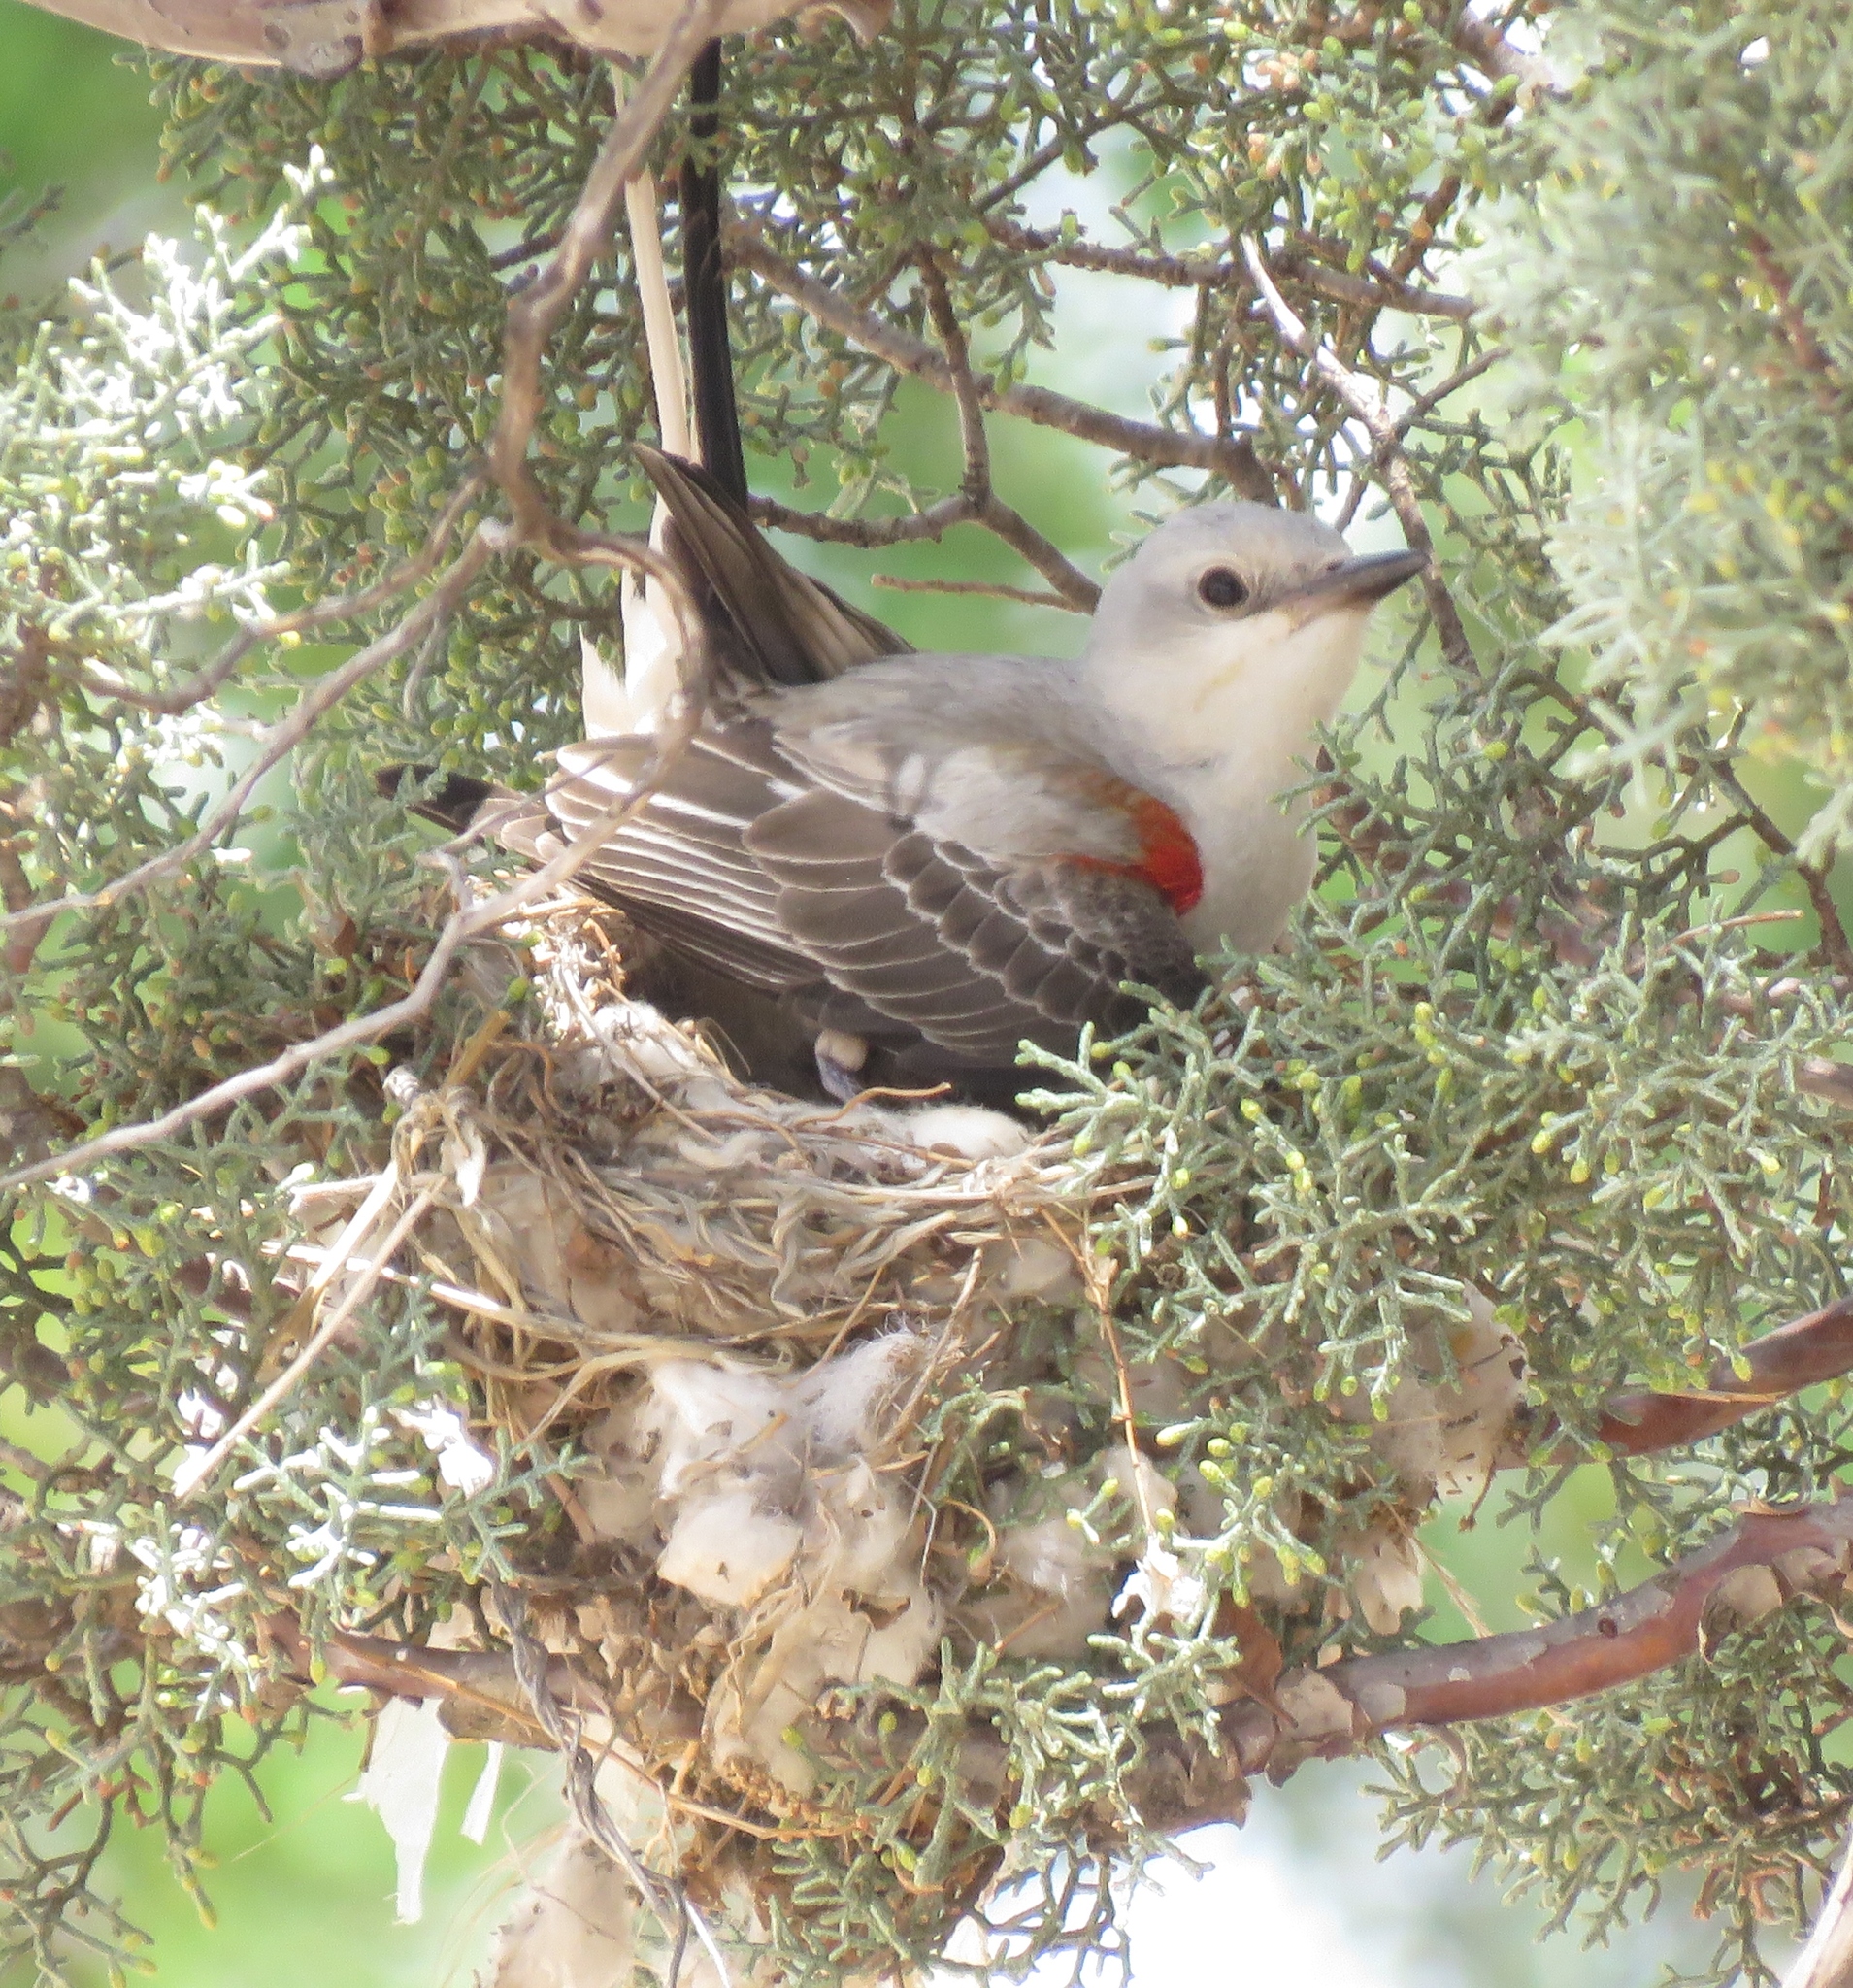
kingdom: Animalia
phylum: Chordata
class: Aves
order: Passeriformes
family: Tyrannidae
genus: Tyrannus
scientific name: Tyrannus forficatus
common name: Scissor-tailed flycatcher
